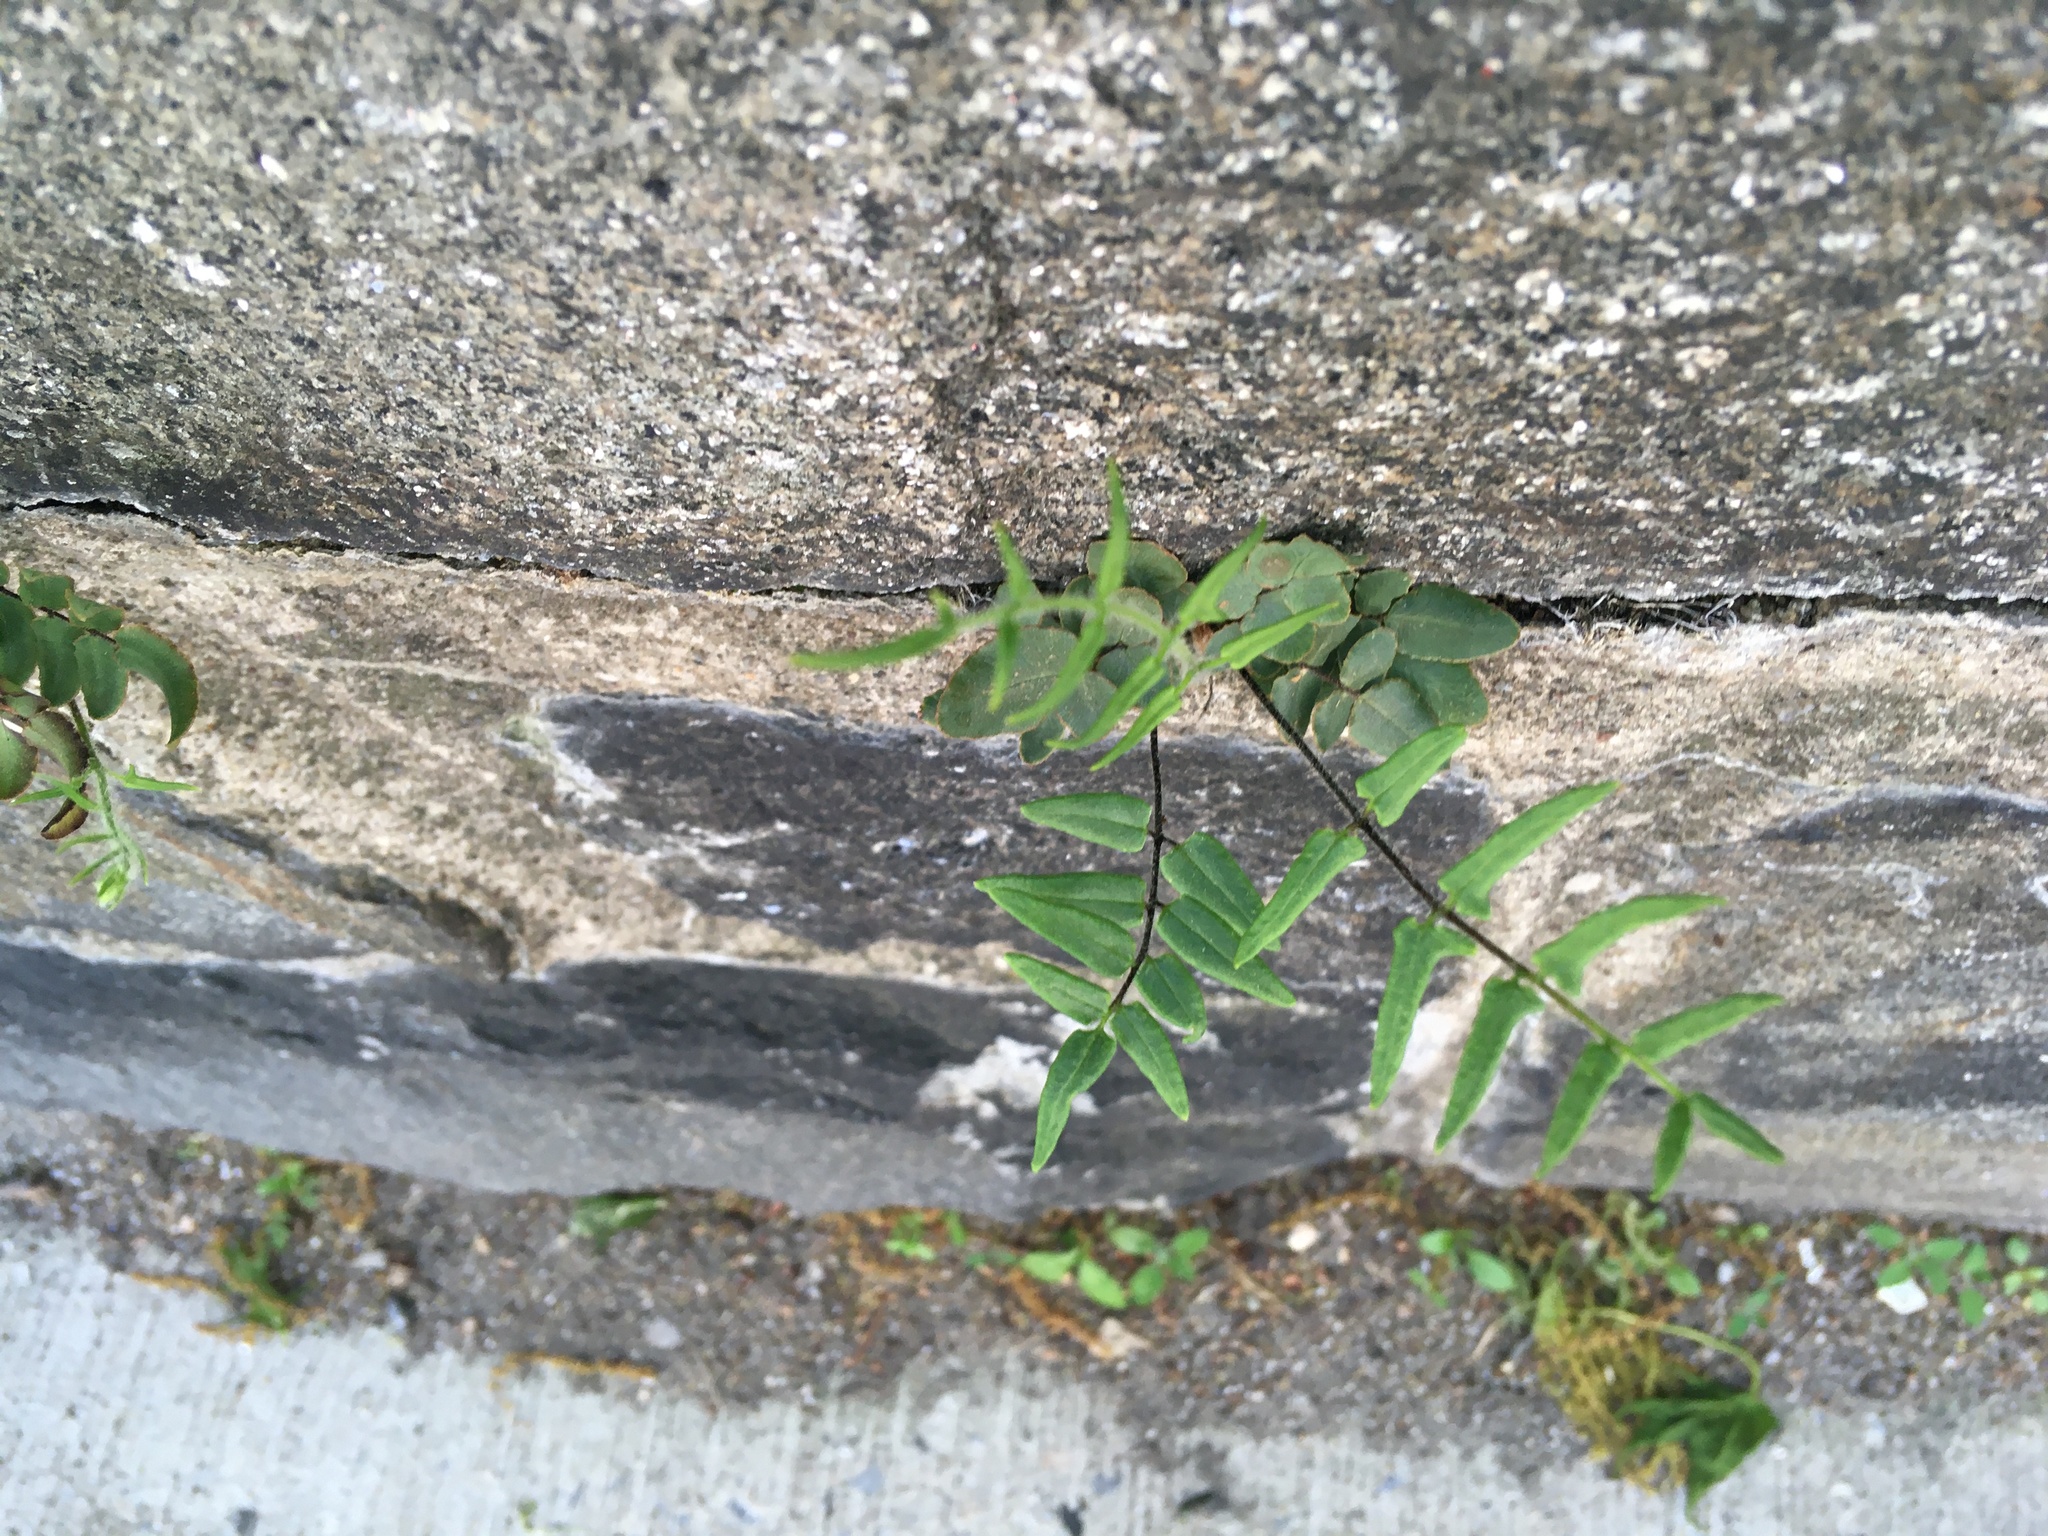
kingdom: Plantae
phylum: Tracheophyta
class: Polypodiopsida
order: Polypodiales
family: Pteridaceae
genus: Pellaea
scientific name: Pellaea atropurpurea
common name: Hairy cliffbrake
